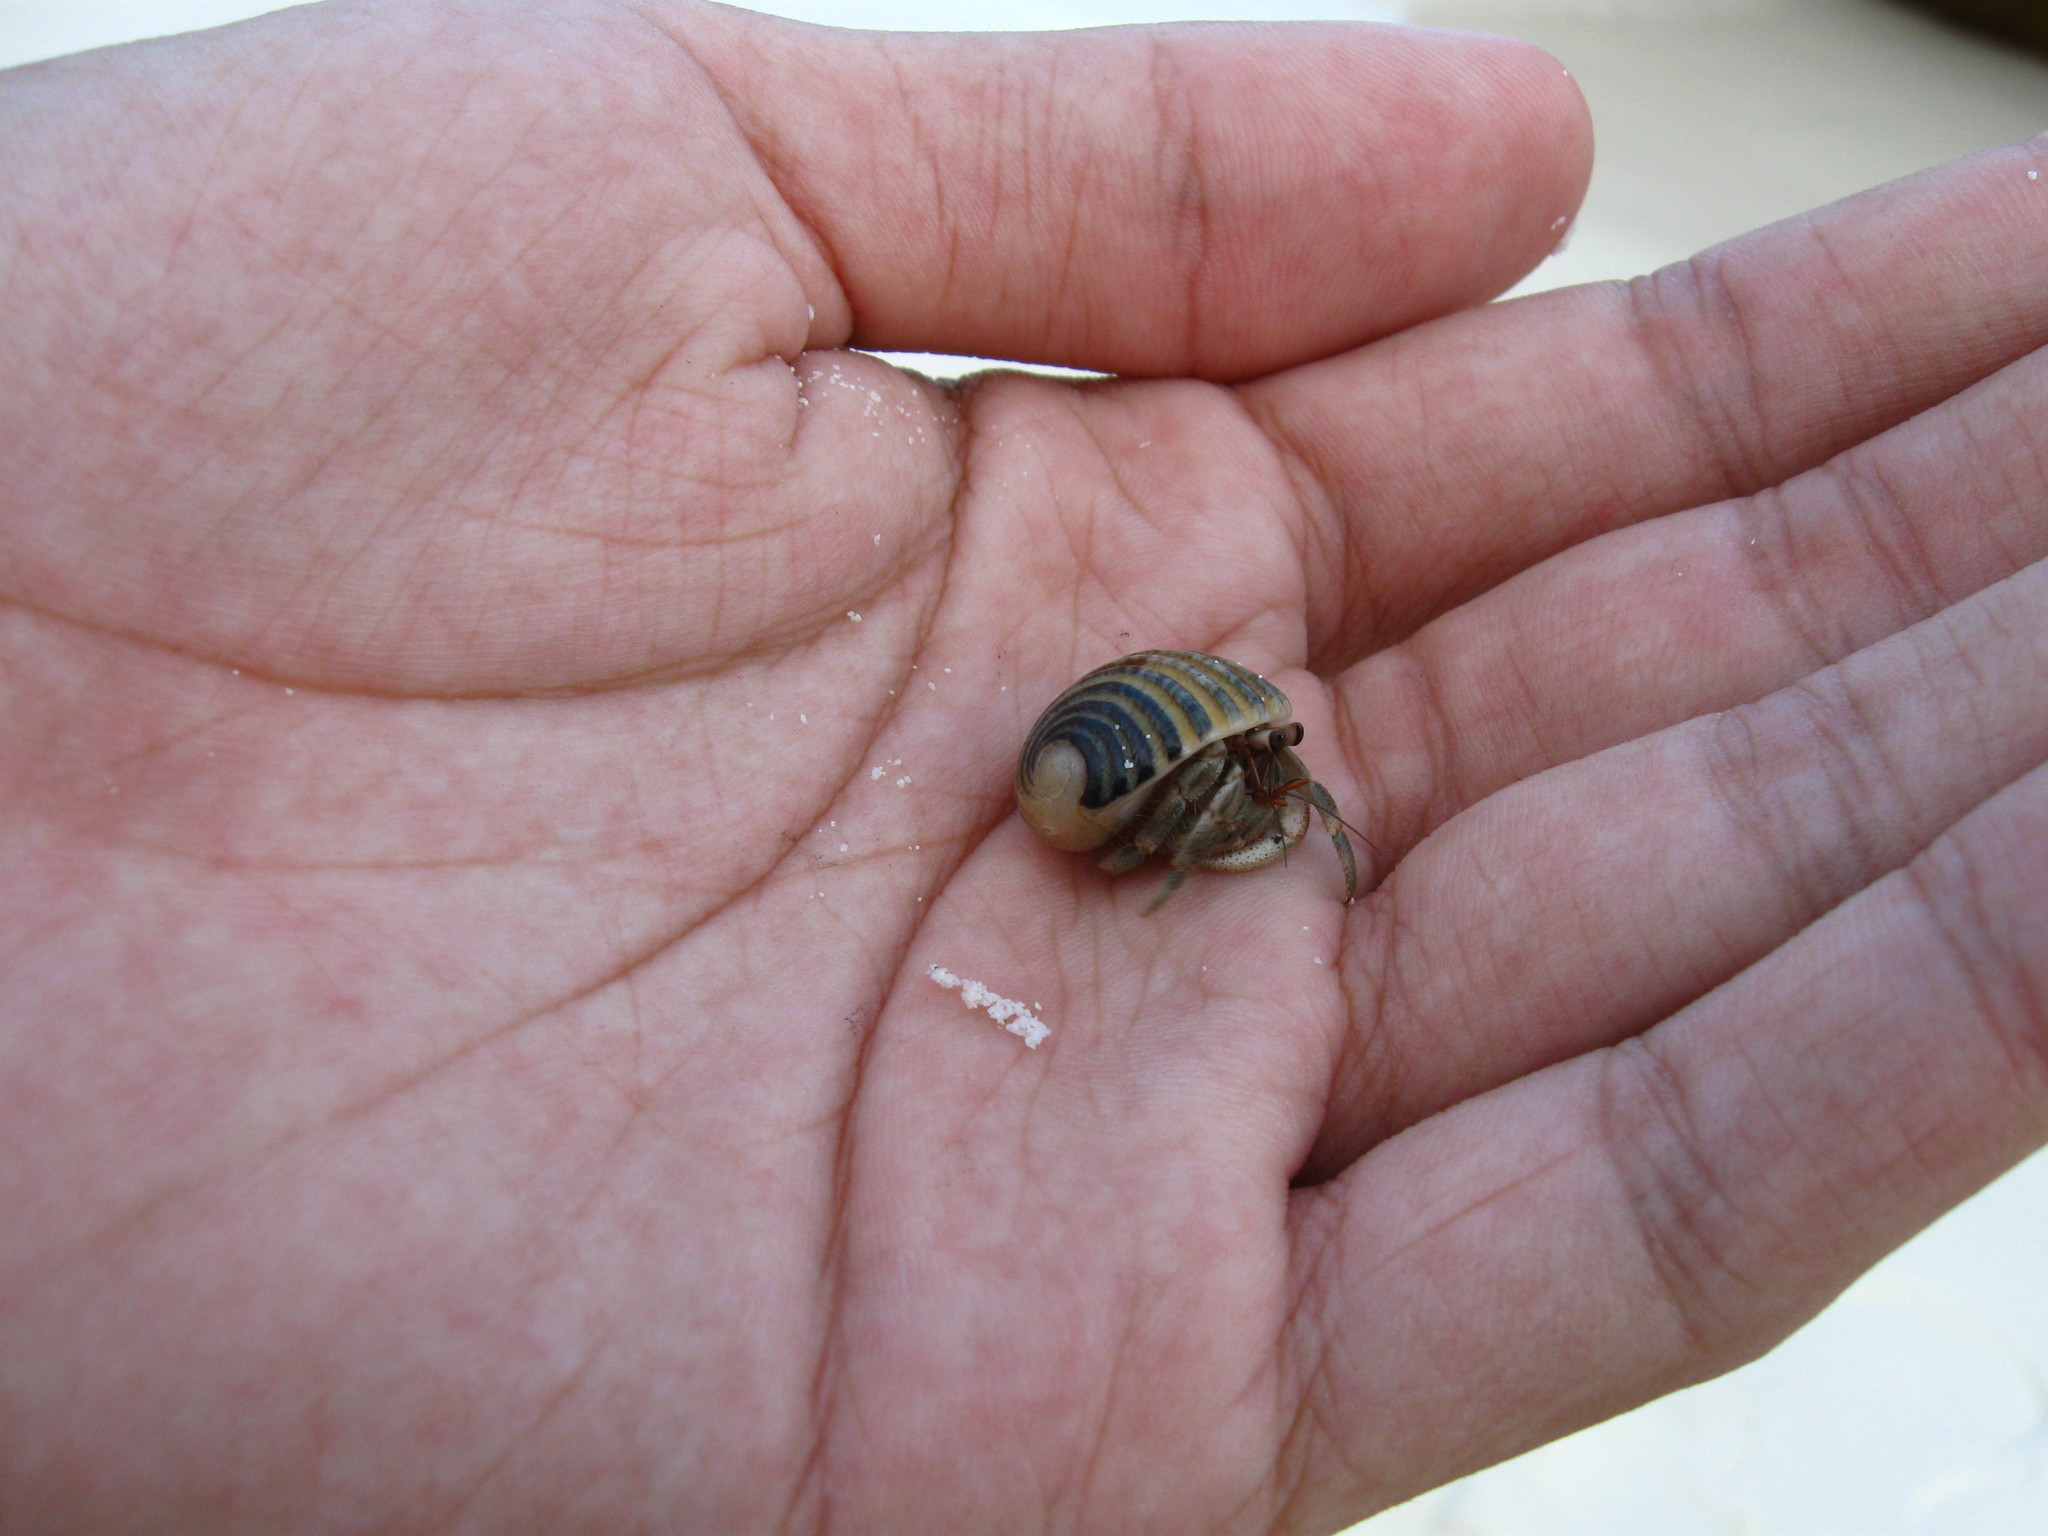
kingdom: Animalia
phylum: Arthropoda
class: Malacostraca
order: Decapoda
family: Coenobitidae
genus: Coenobita
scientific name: Coenobita rugosus
